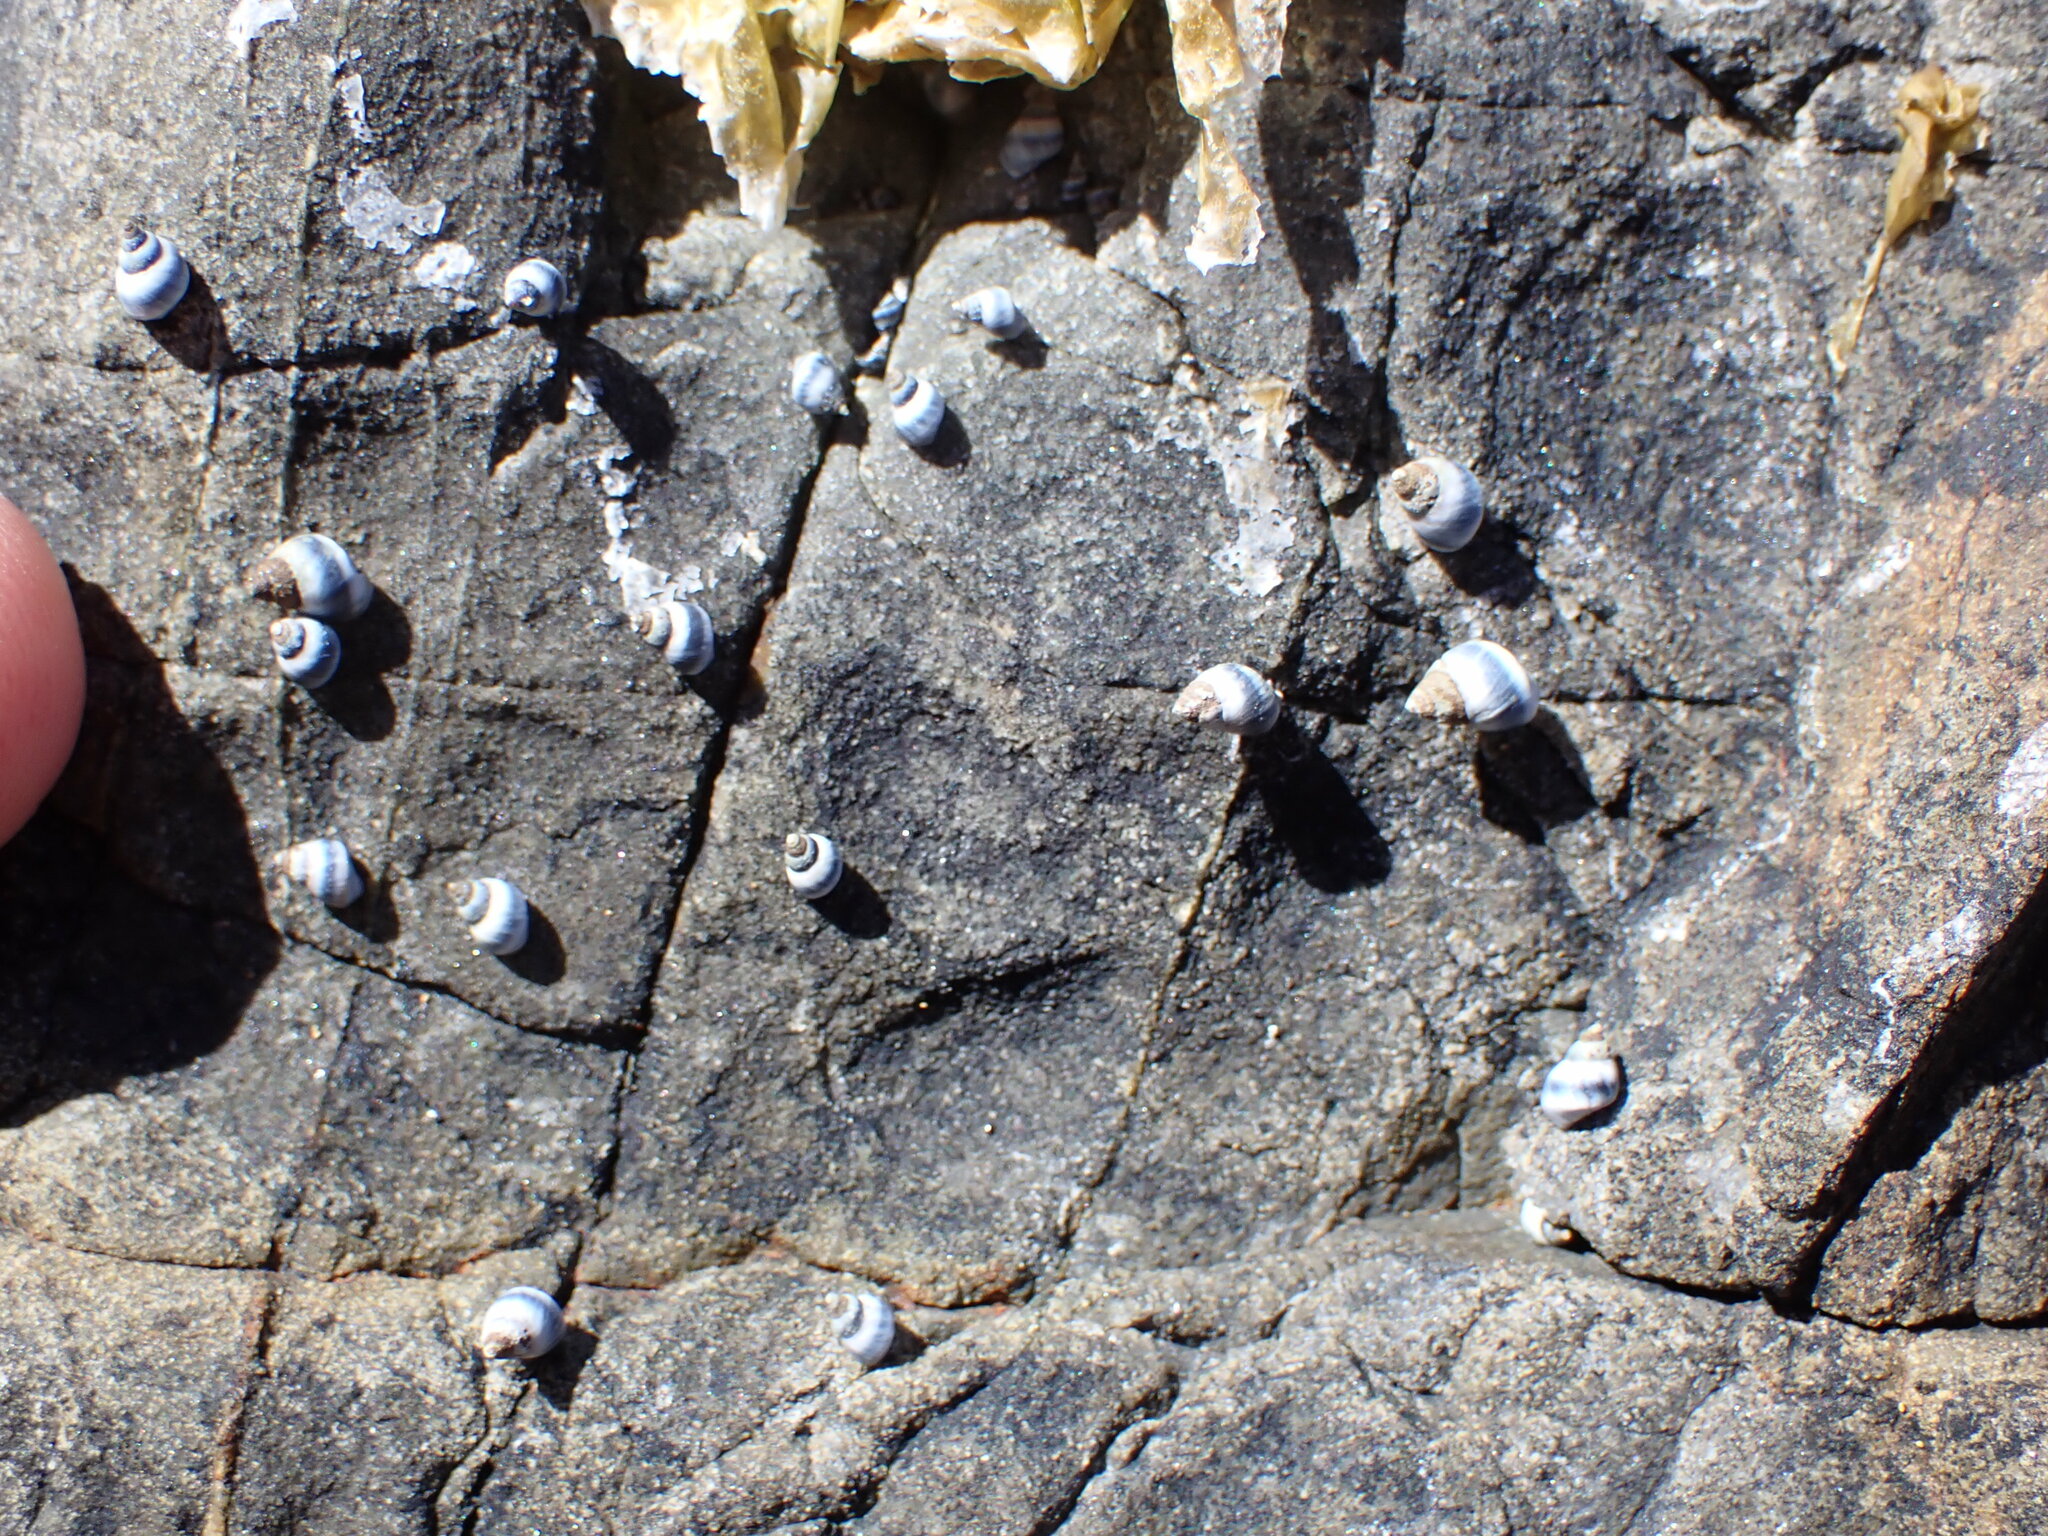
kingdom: Animalia
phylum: Mollusca
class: Gastropoda
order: Littorinimorpha
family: Littorinidae
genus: Austrolittorina
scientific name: Austrolittorina antipodum
